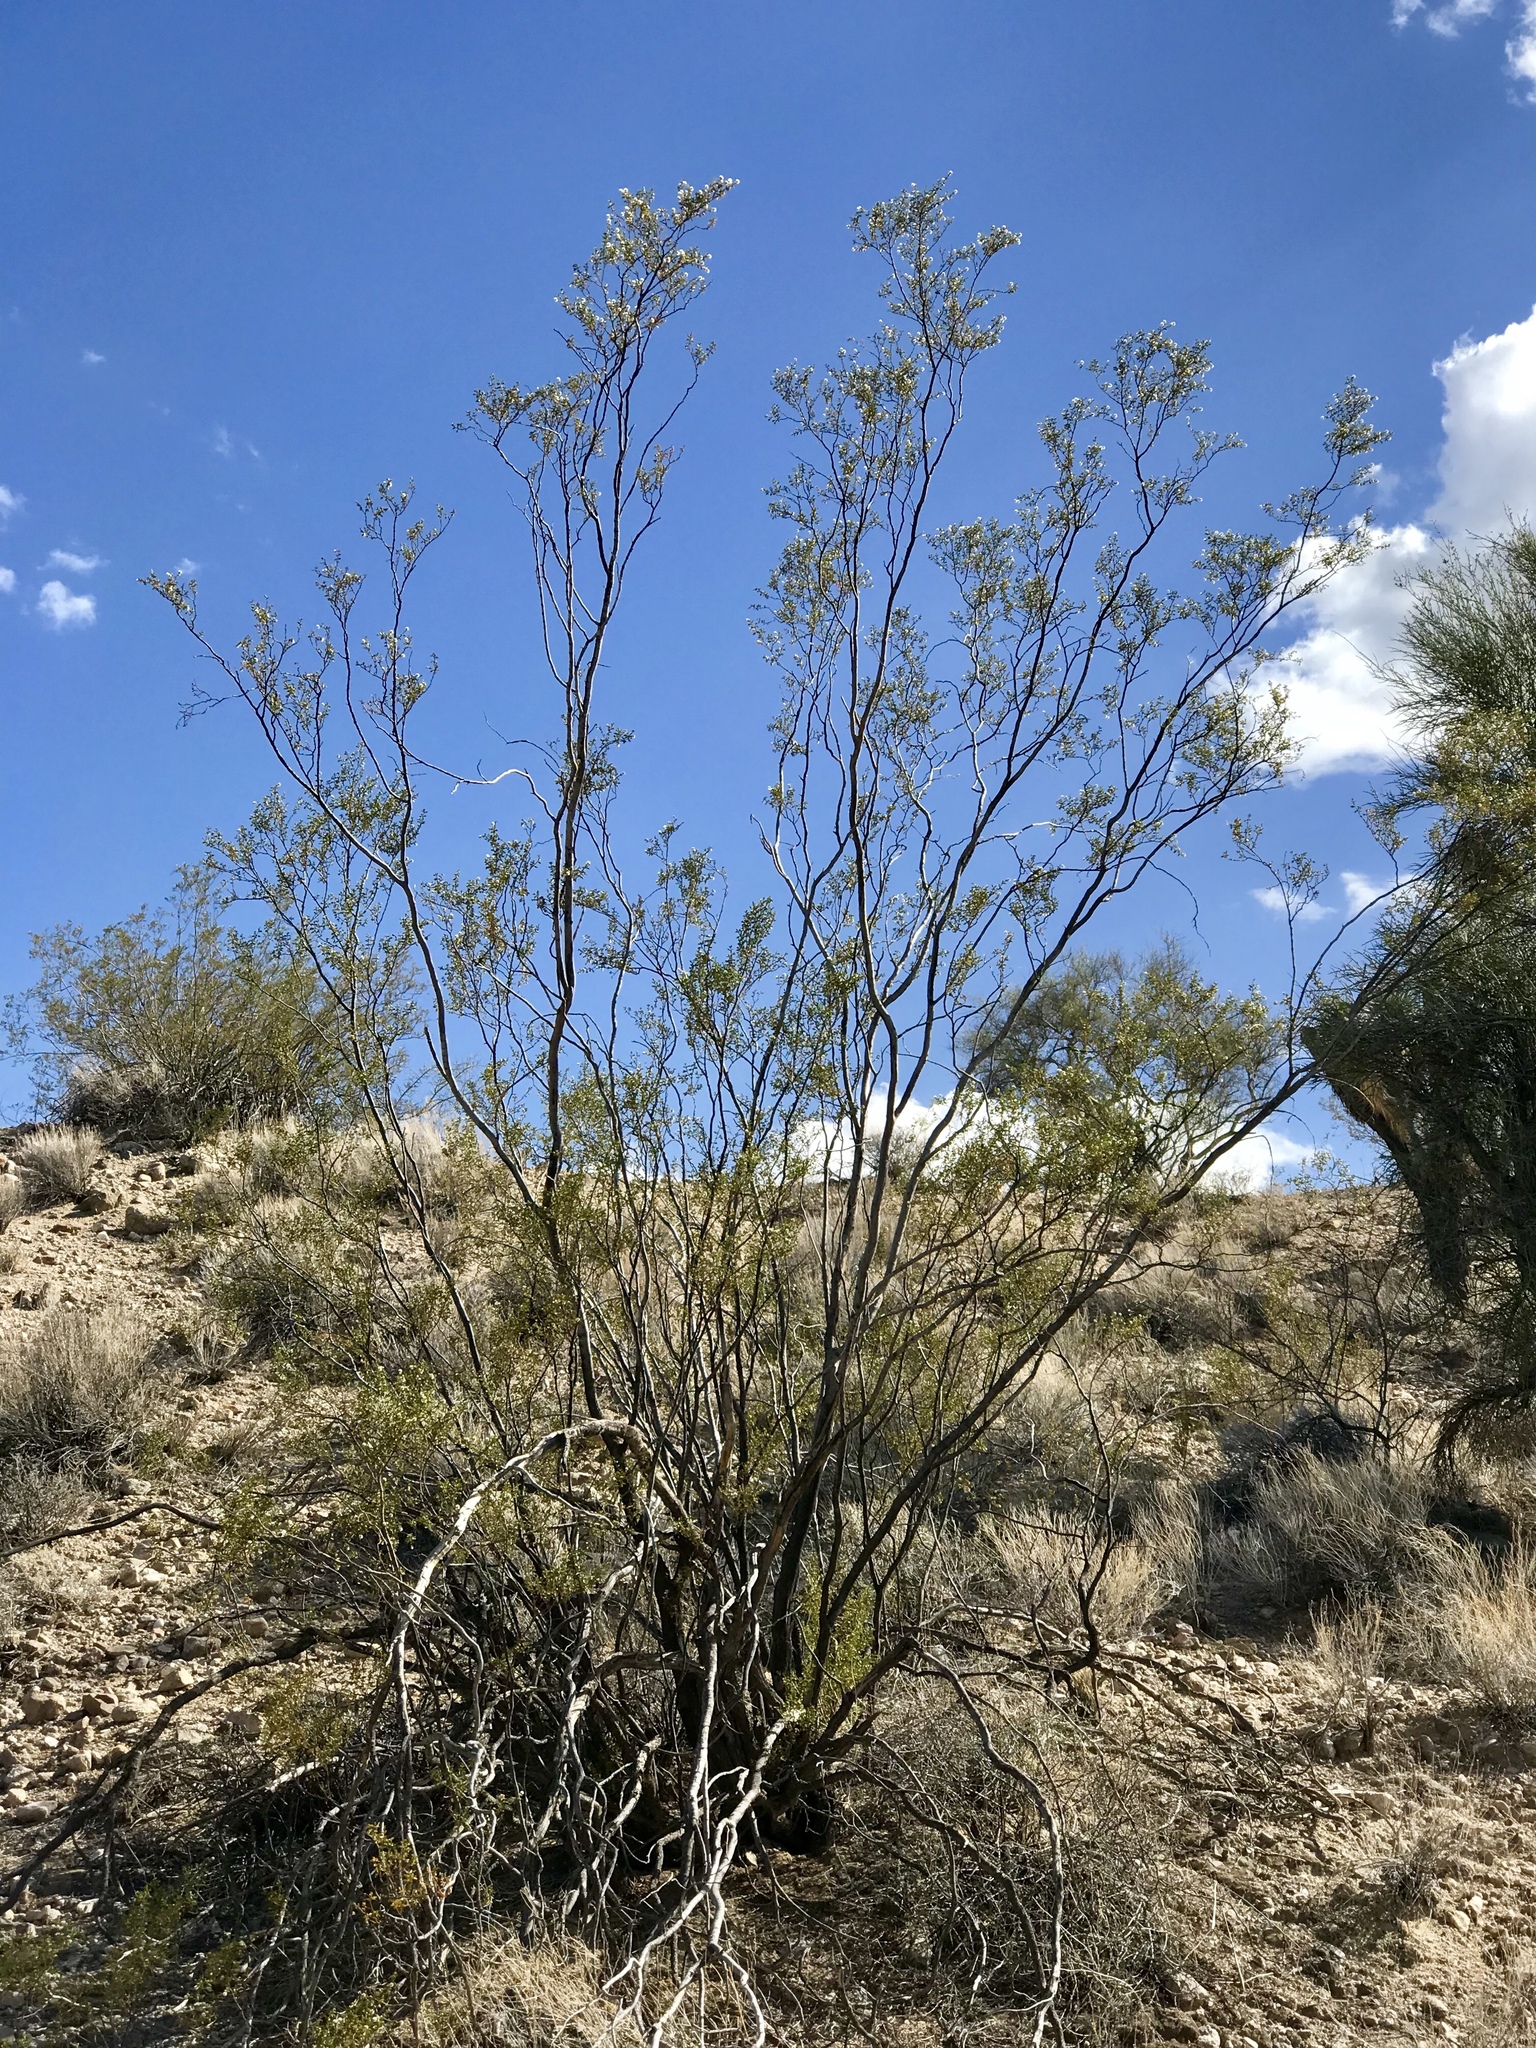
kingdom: Plantae
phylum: Tracheophyta
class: Magnoliopsida
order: Zygophyllales
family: Zygophyllaceae
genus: Larrea
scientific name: Larrea tridentata
